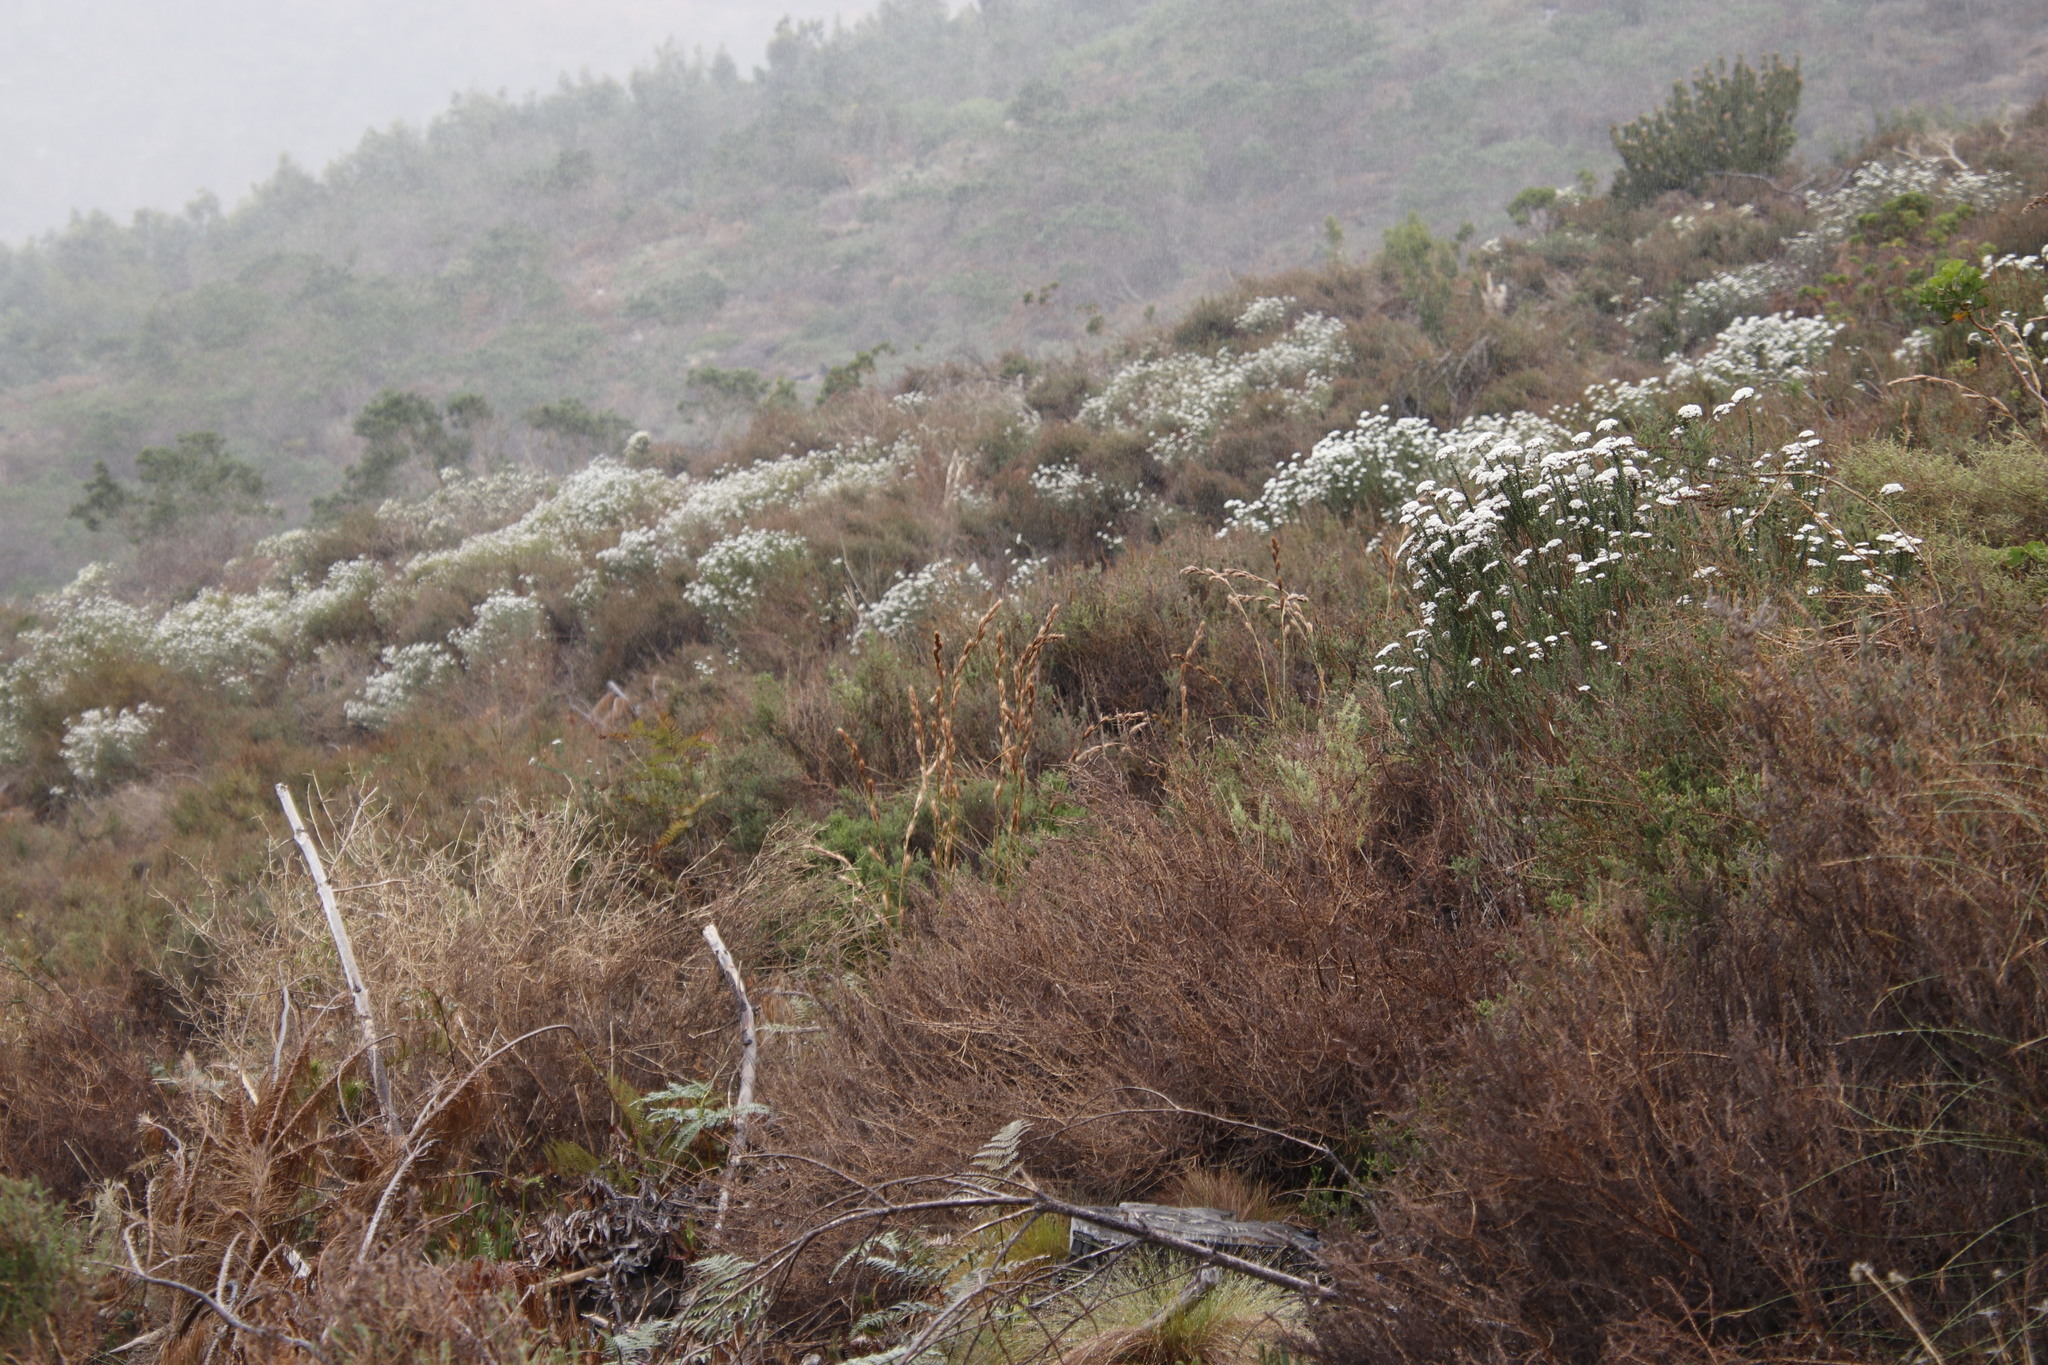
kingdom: Plantae
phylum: Tracheophyta
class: Liliopsida
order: Poales
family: Cyperaceae
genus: Tetraria
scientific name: Tetraria bromoides
